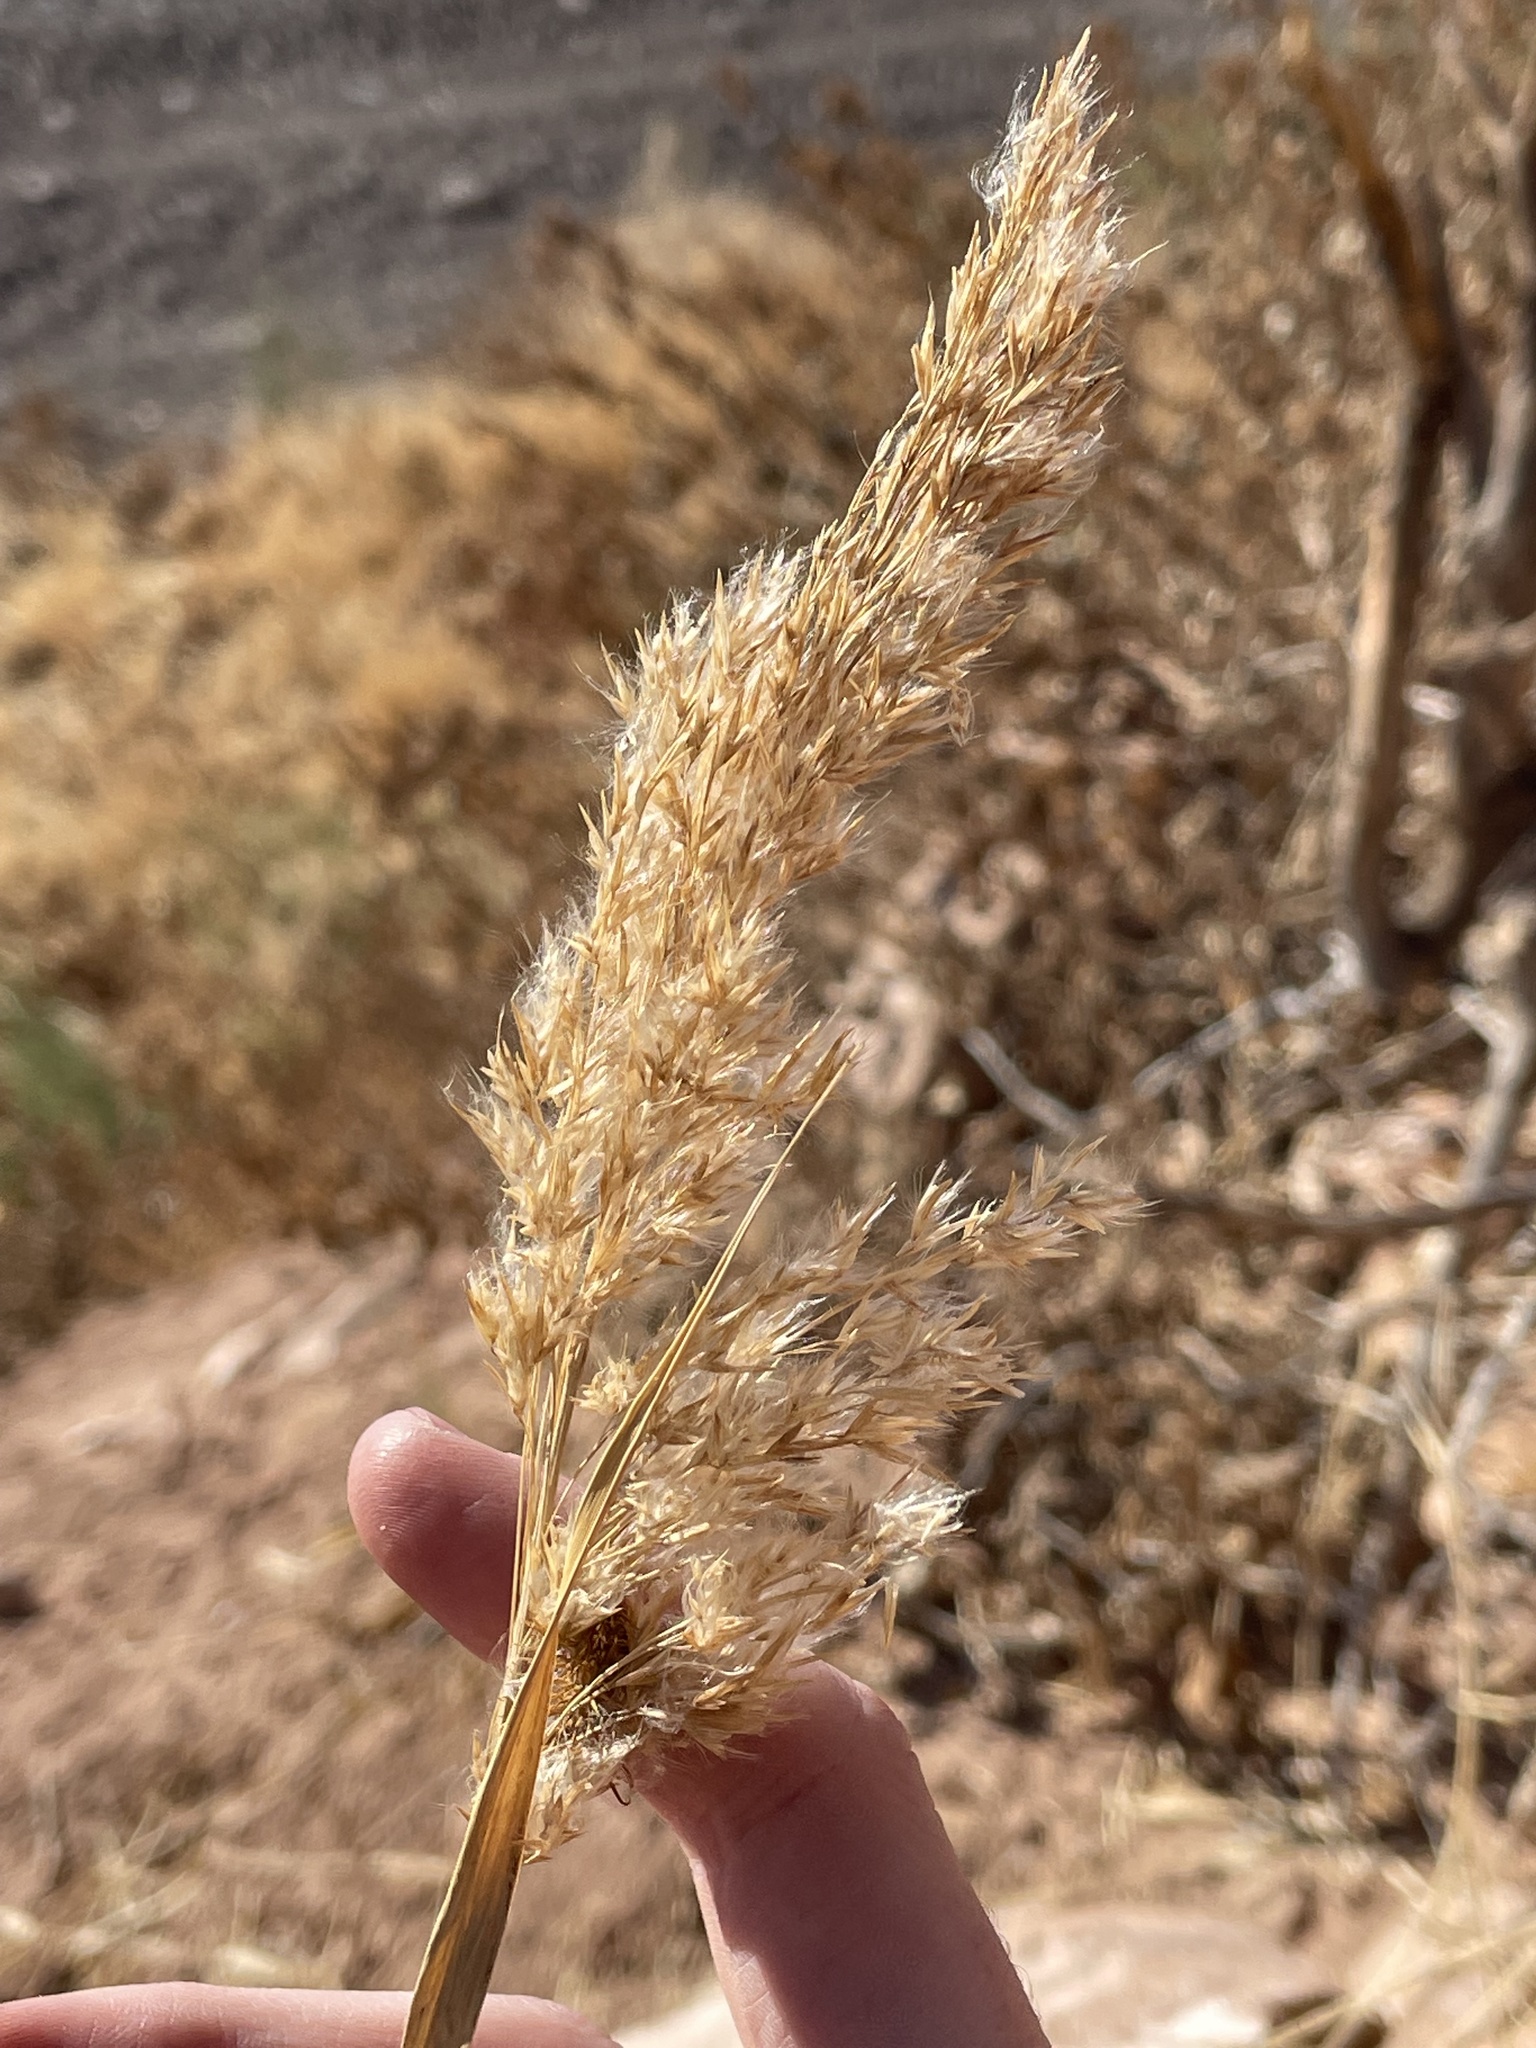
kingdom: Plantae
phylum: Tracheophyta
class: Liliopsida
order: Poales
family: Poaceae
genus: Phragmites
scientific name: Phragmites australis
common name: Common reed
